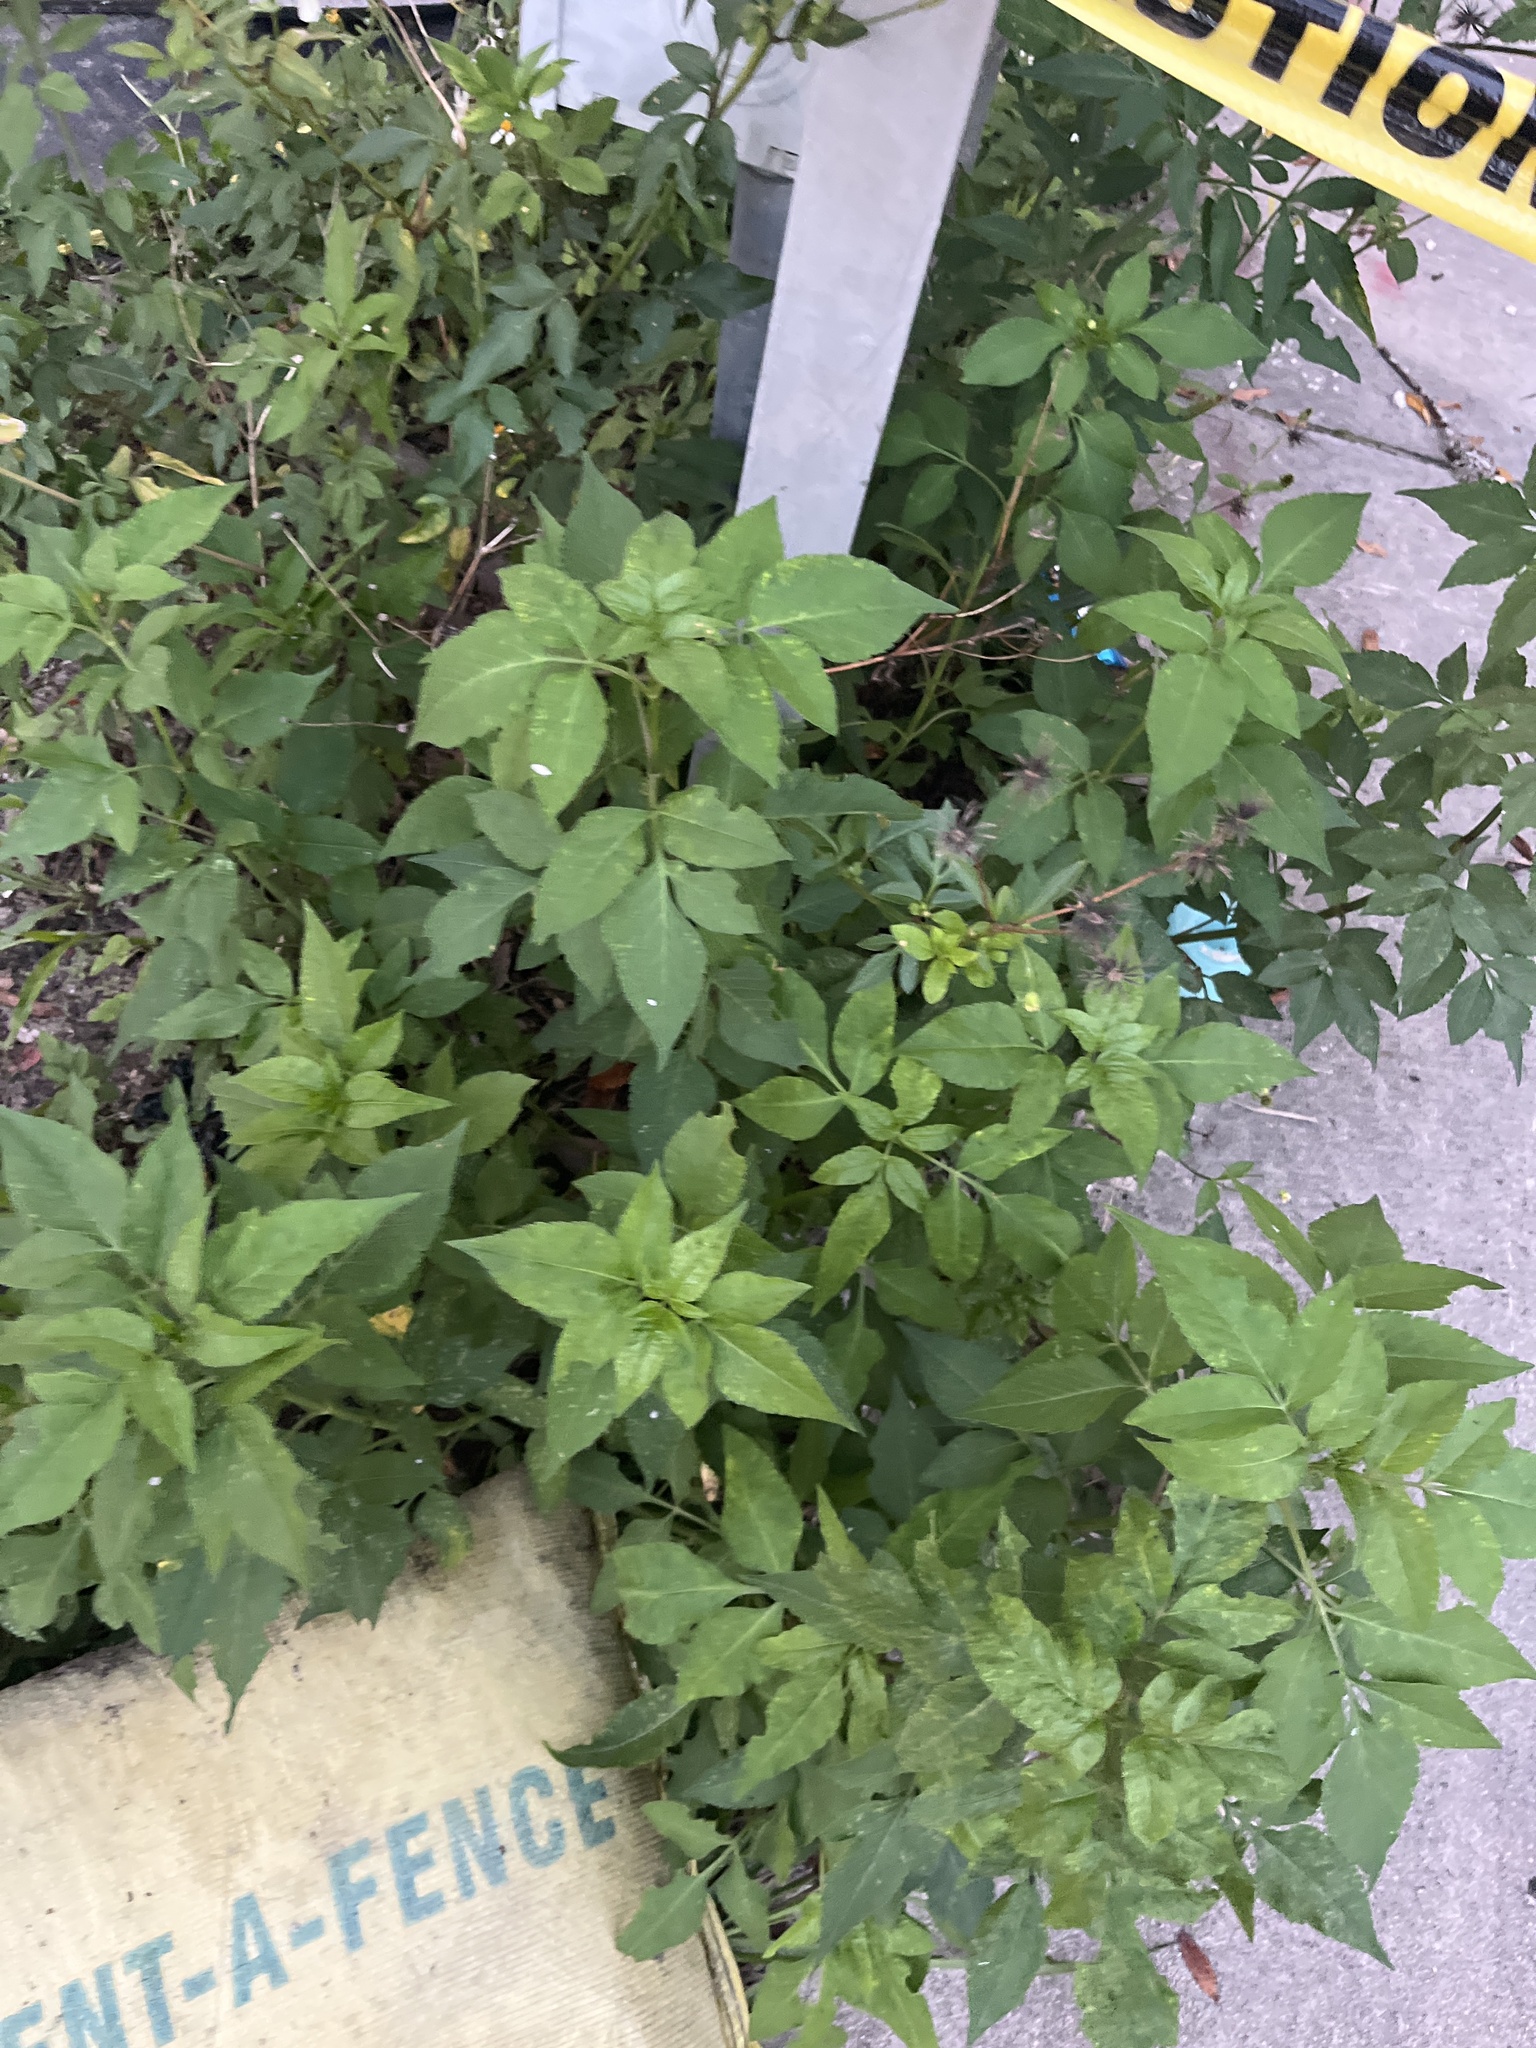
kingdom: Plantae
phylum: Tracheophyta
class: Magnoliopsida
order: Asterales
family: Asteraceae
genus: Bidens
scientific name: Bidens alba
